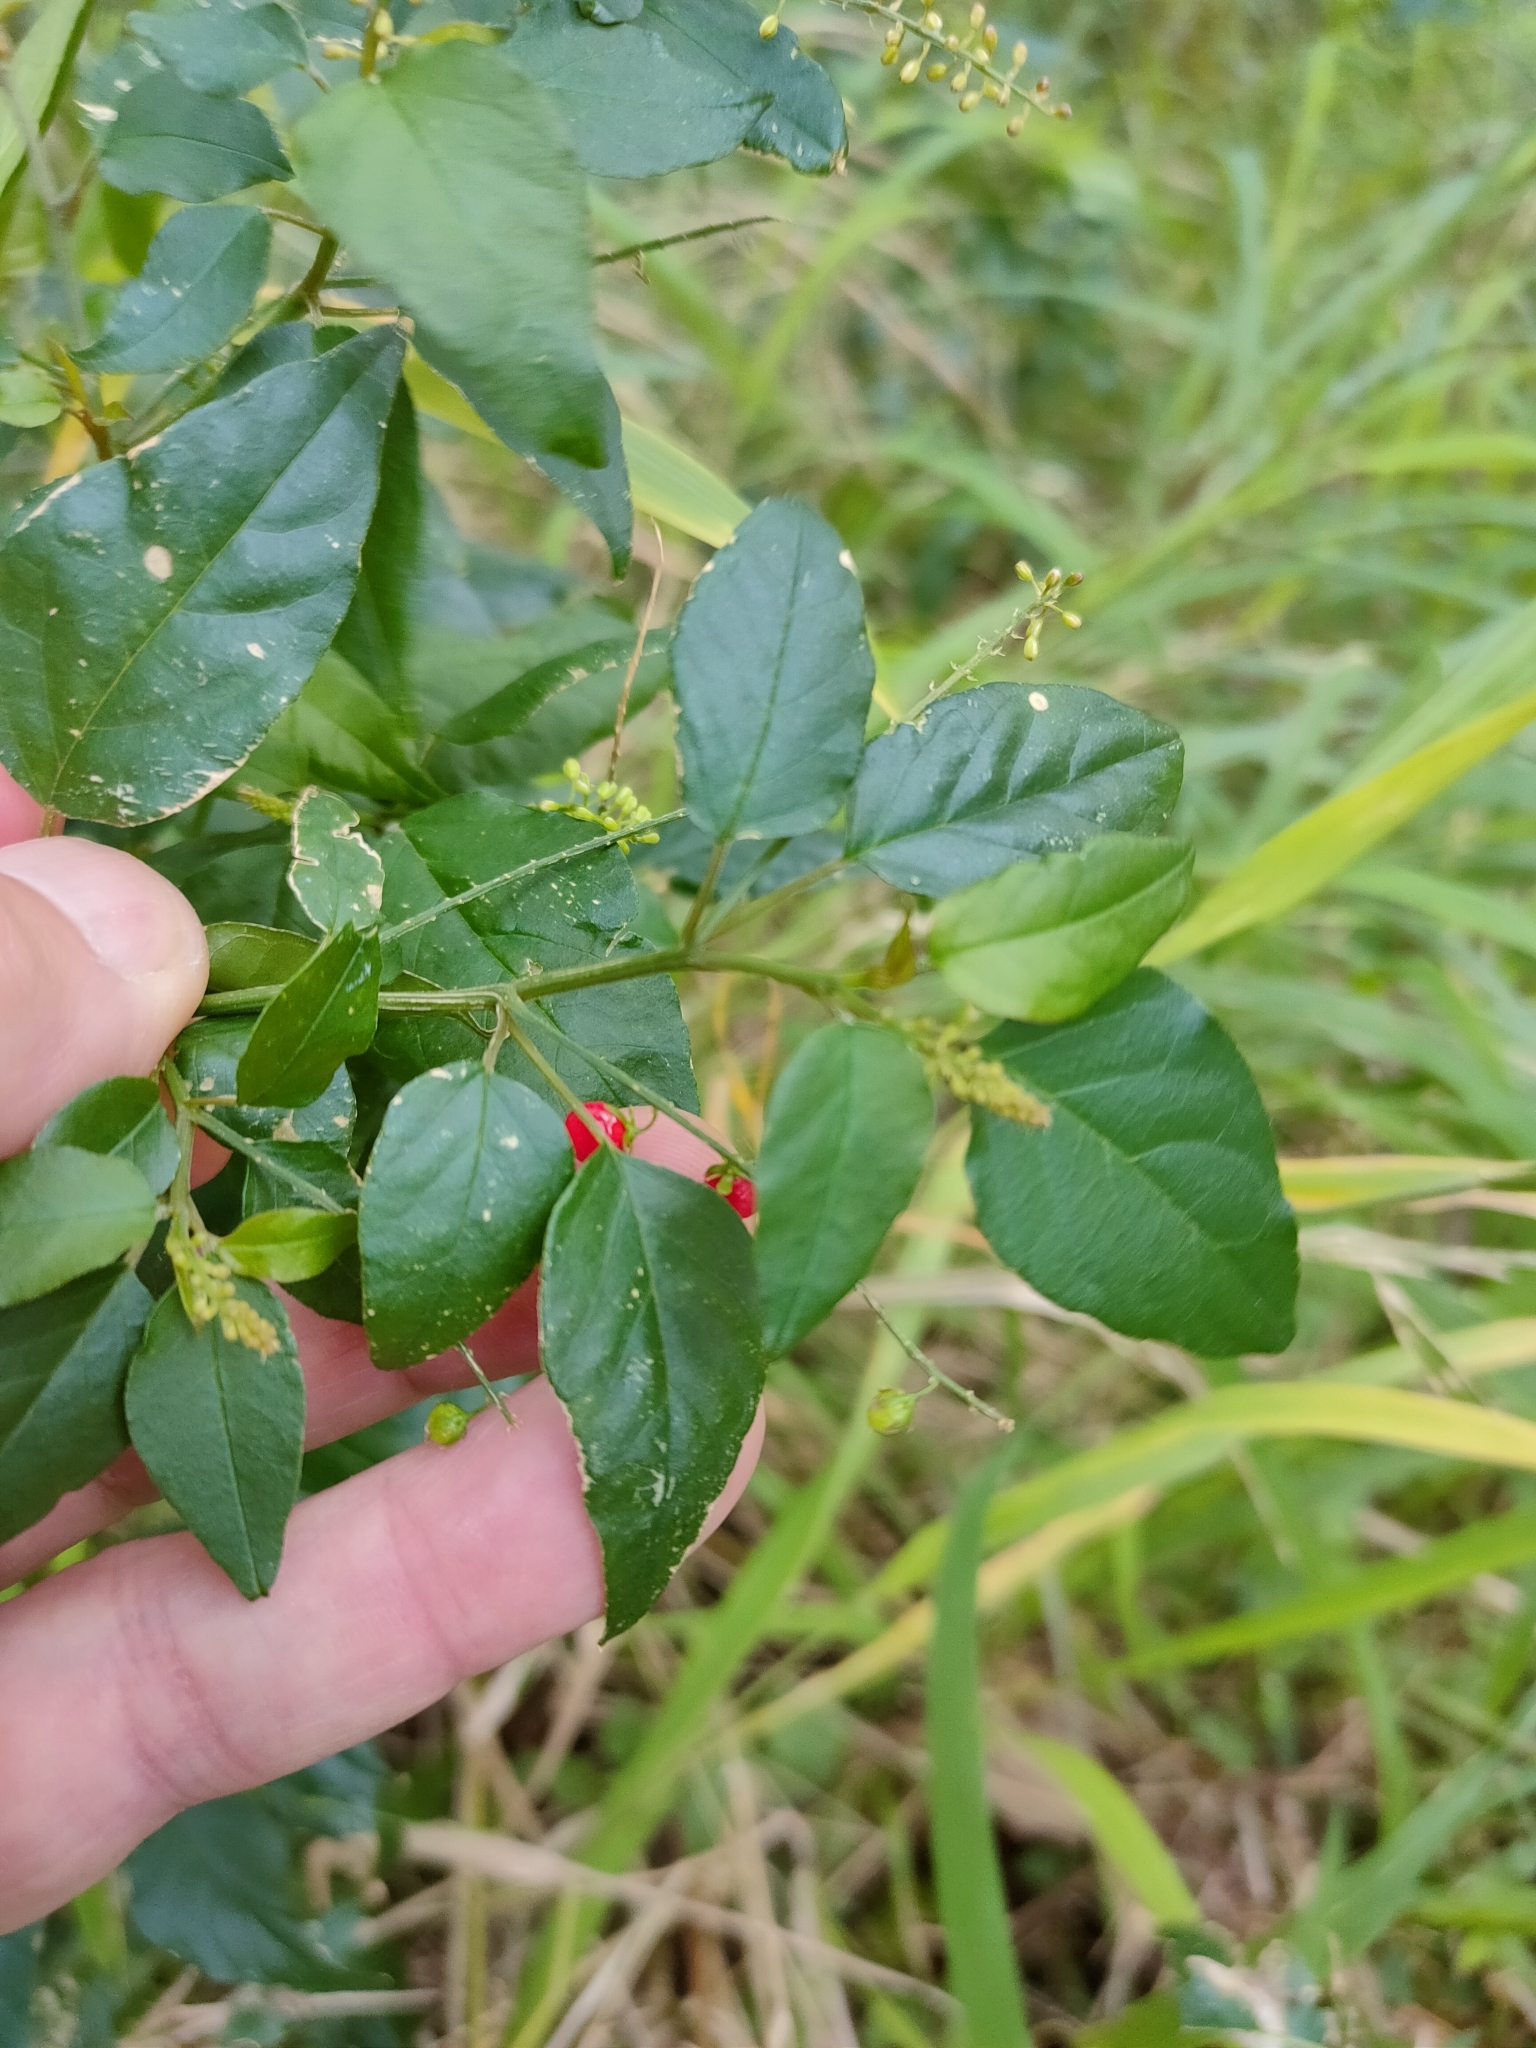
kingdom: Plantae
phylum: Tracheophyta
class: Magnoliopsida
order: Caryophyllales
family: Phytolaccaceae
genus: Rivina
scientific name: Rivina humilis
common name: Rougeplant
